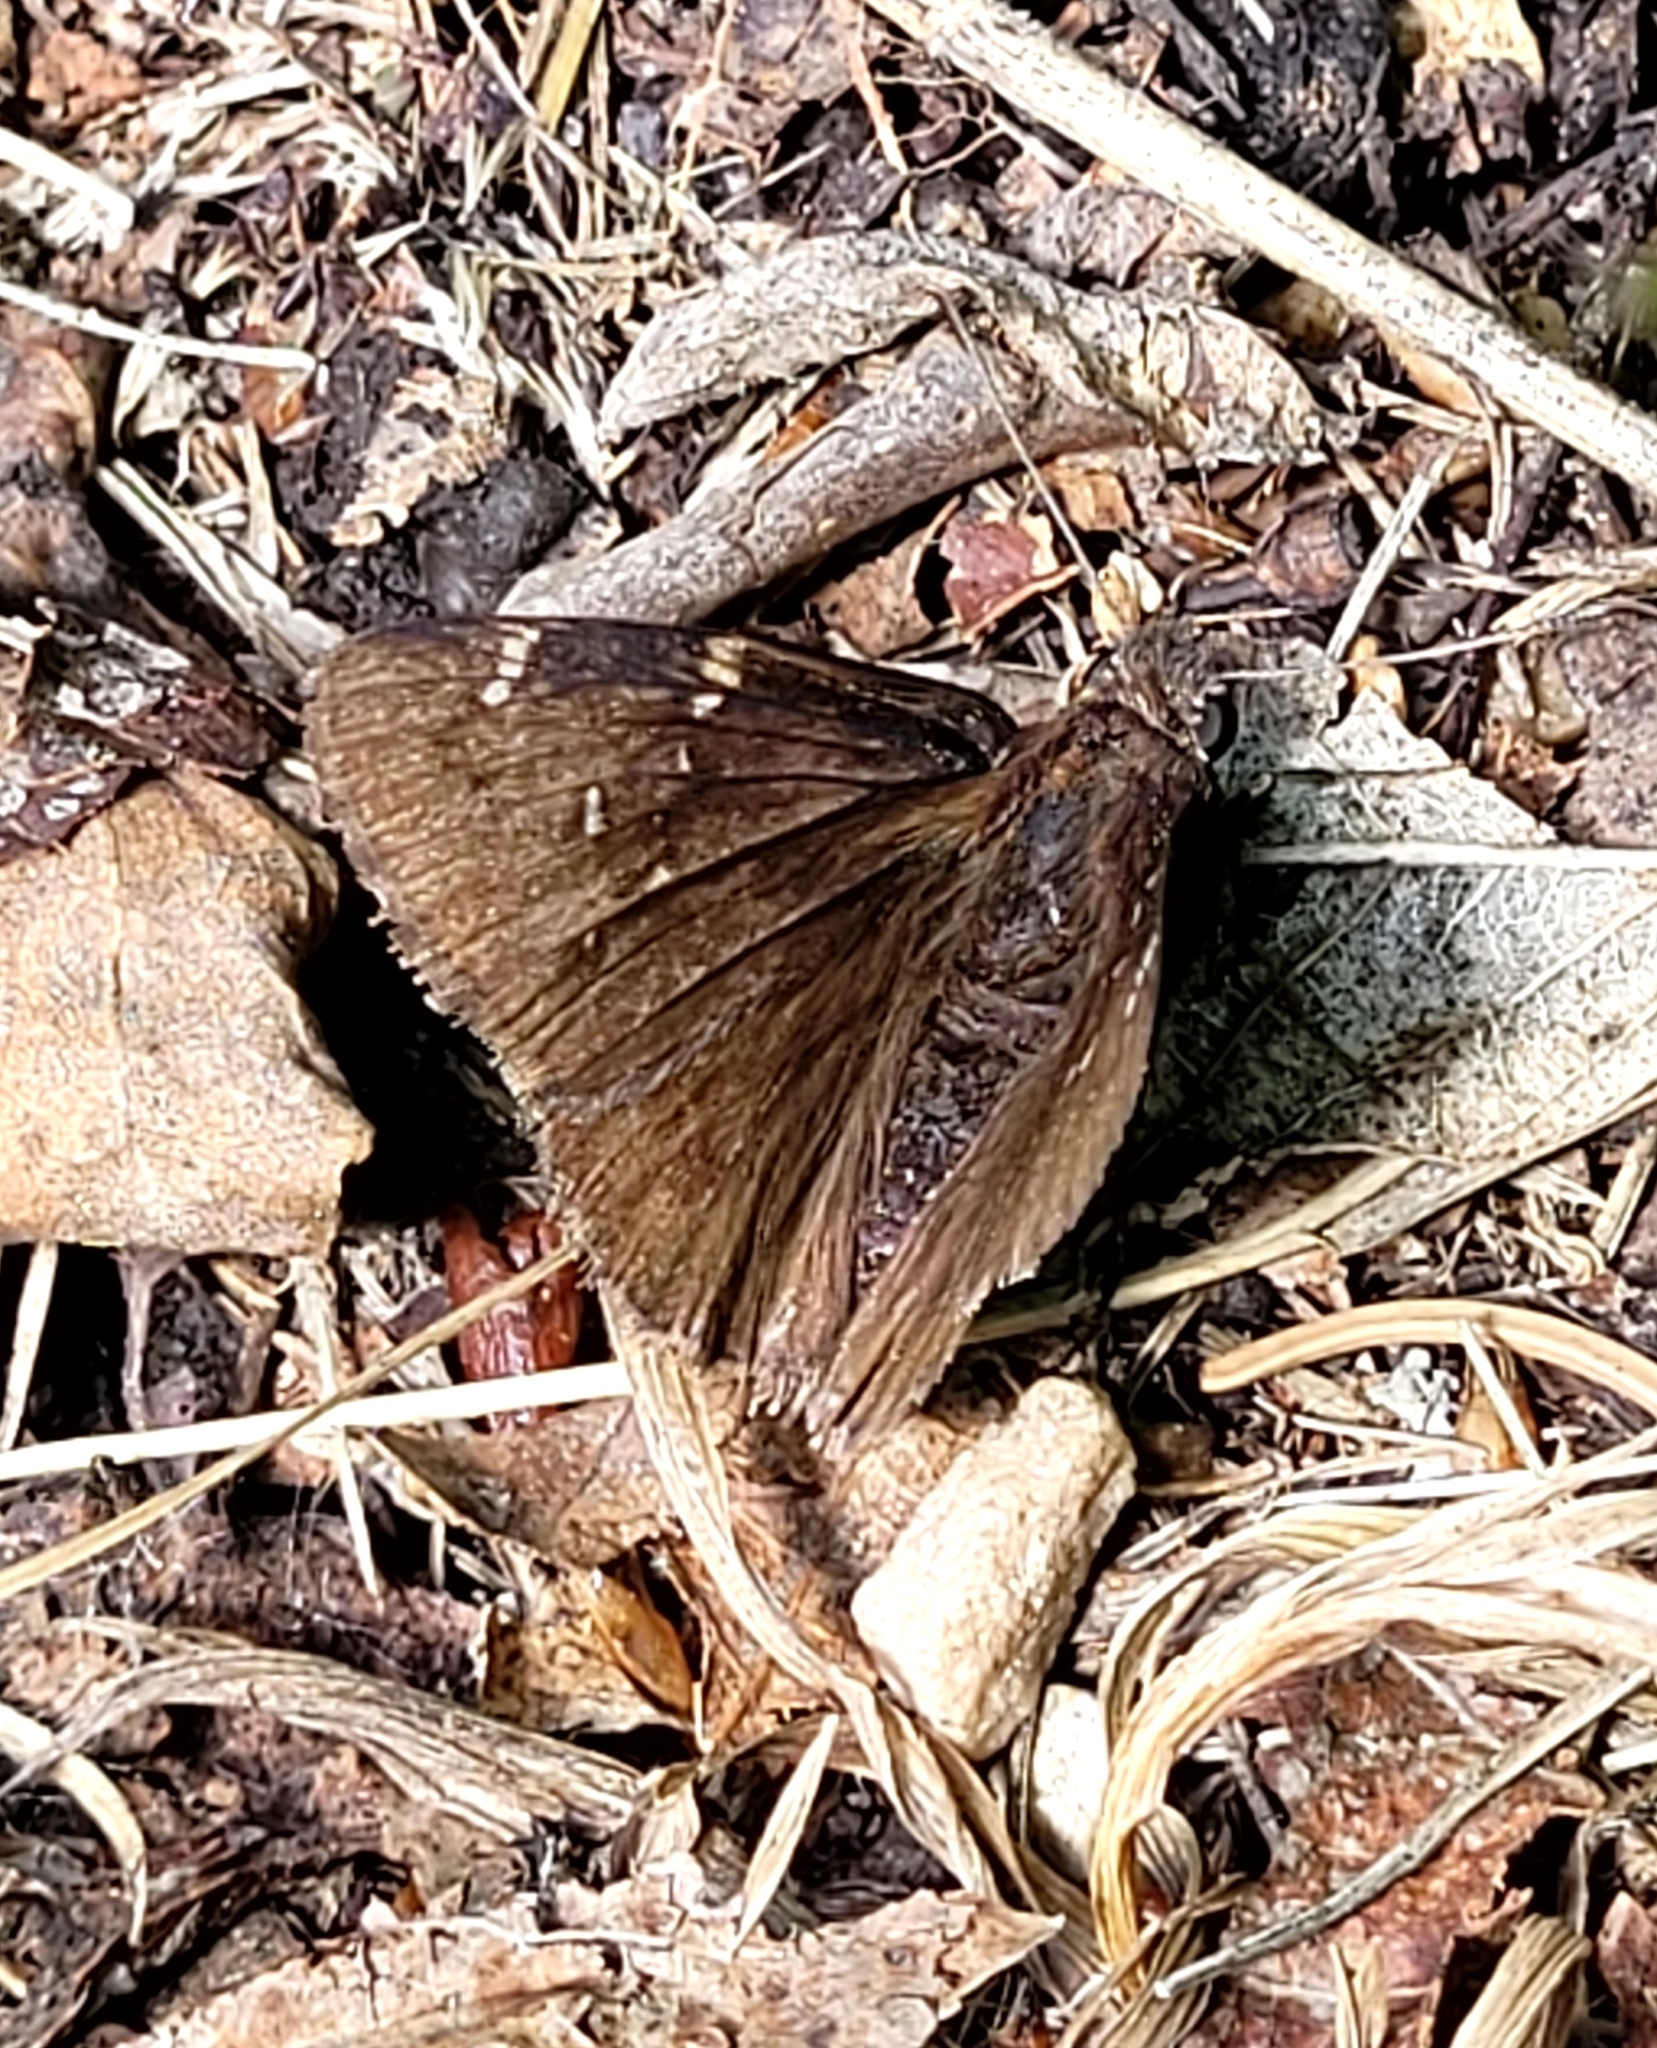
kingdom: Animalia
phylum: Arthropoda
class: Insecta
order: Lepidoptera
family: Hesperiidae
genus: Thorybes
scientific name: Thorybes pylades
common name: Northern cloudywing
